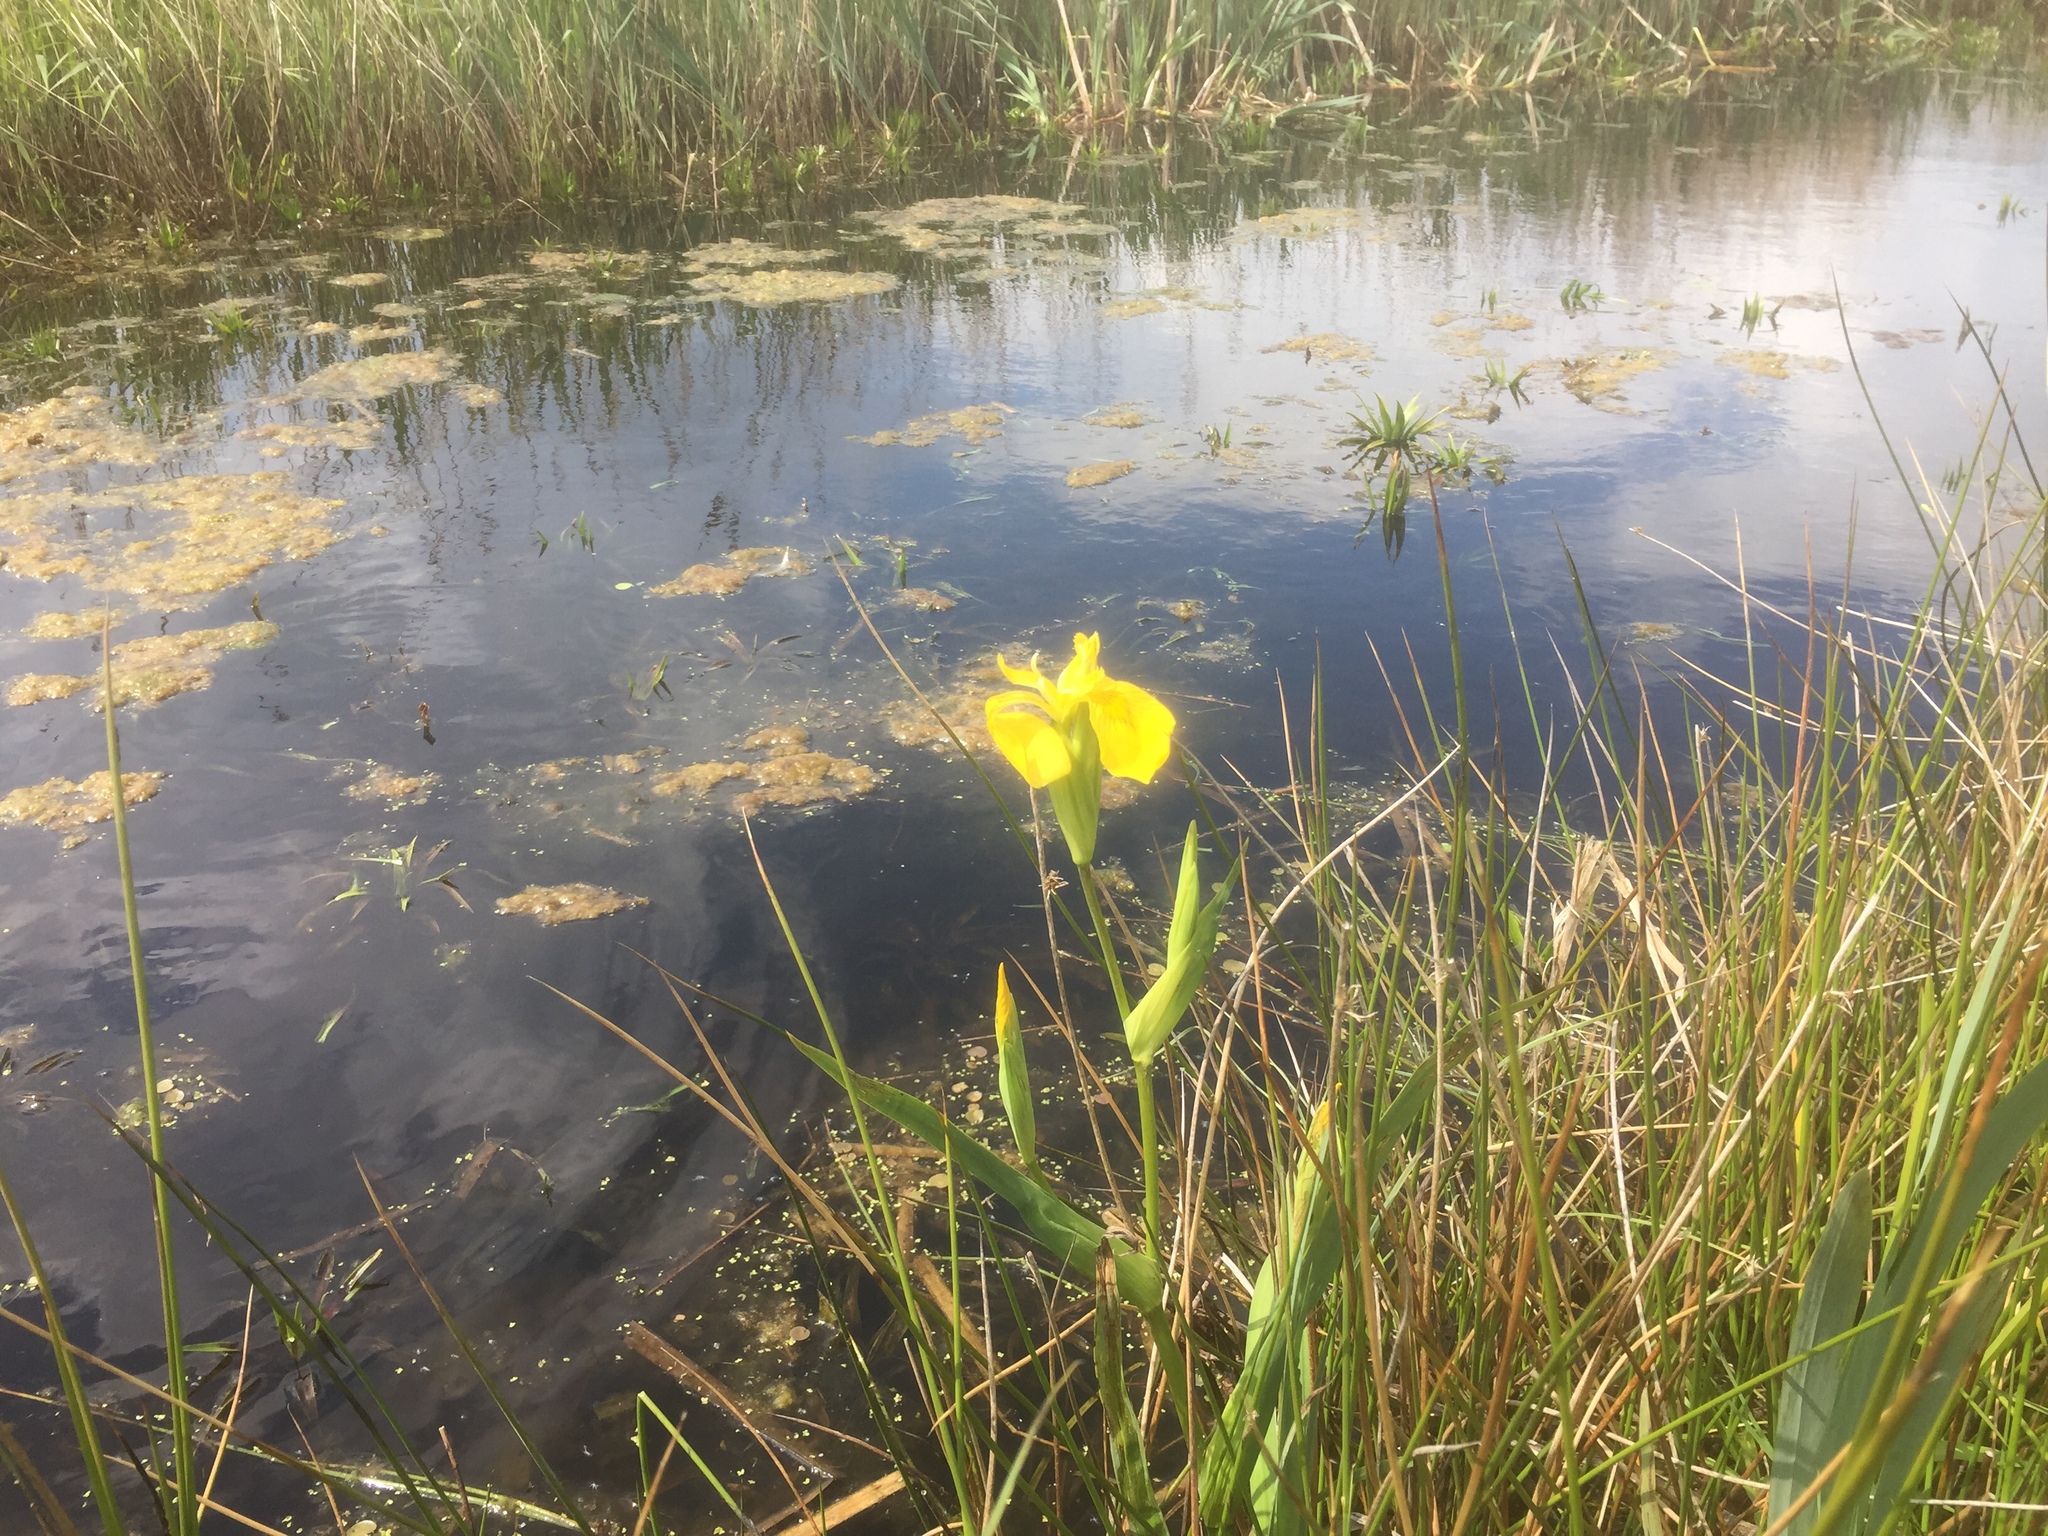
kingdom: Plantae
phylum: Tracheophyta
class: Liliopsida
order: Asparagales
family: Iridaceae
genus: Iris
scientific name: Iris pseudacorus
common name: Yellow flag
